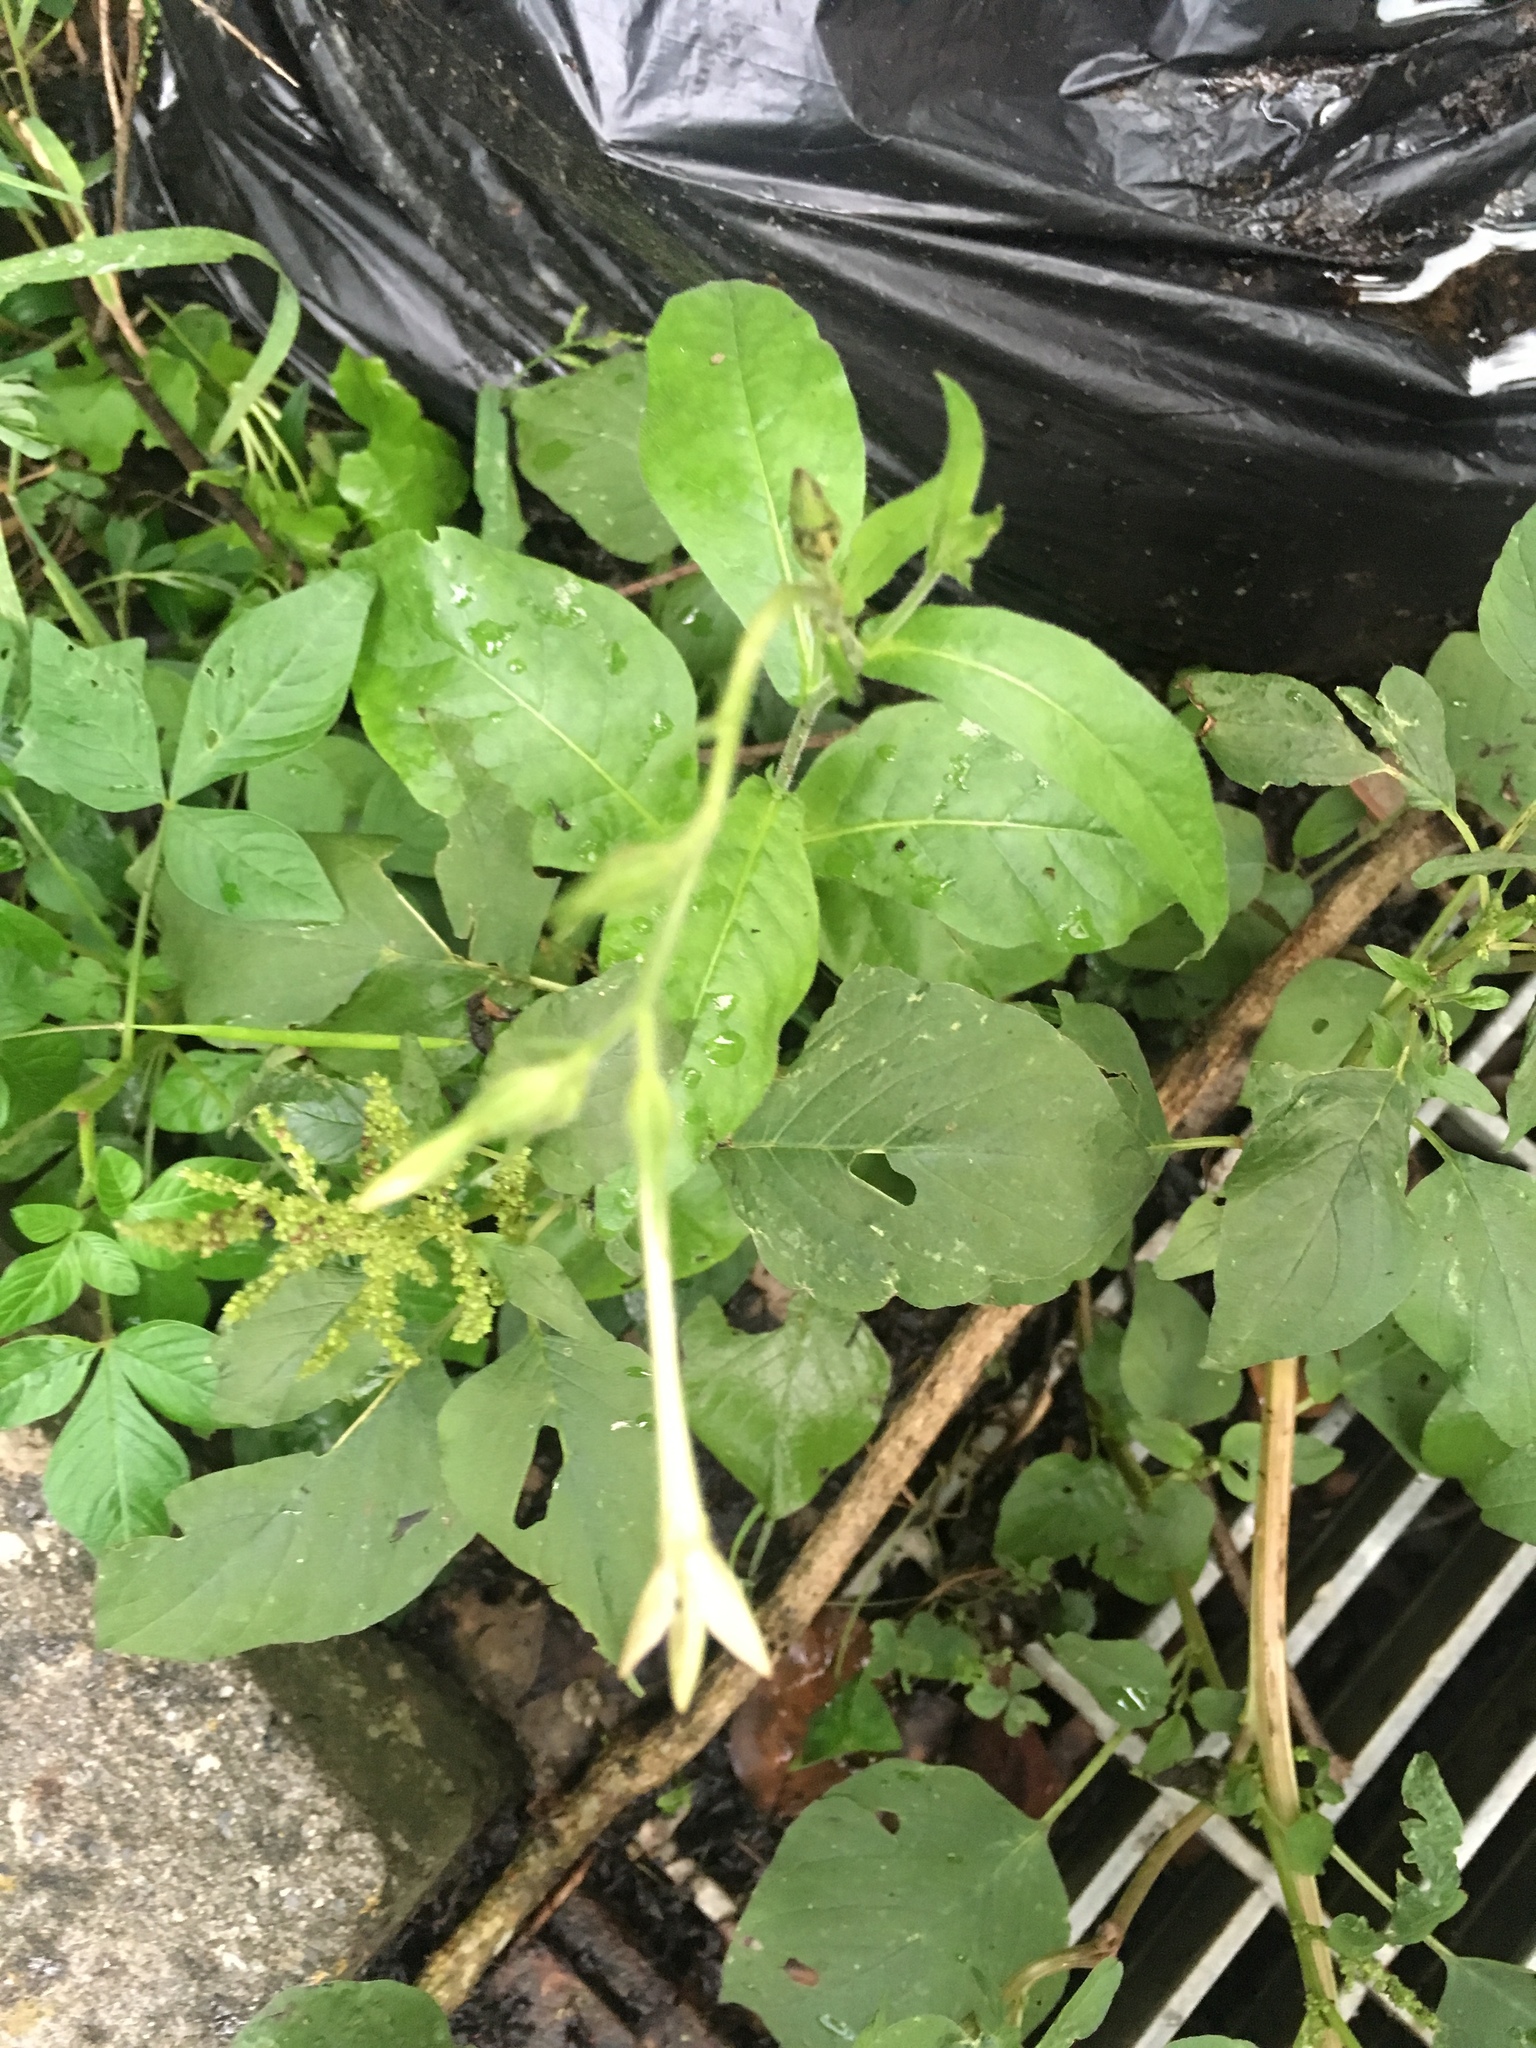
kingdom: Plantae
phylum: Tracheophyta
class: Magnoliopsida
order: Solanales
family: Solanaceae
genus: Nicotiana
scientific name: Nicotiana plumbaginifolia
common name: Tex-mex tobacco
